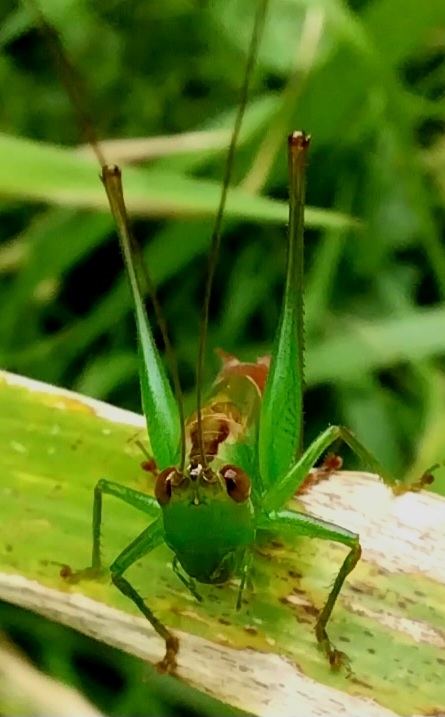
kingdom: Animalia
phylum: Arthropoda
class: Insecta
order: Orthoptera
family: Tettigoniidae
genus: Conocephalus
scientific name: Conocephalus saltator
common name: Katydid
